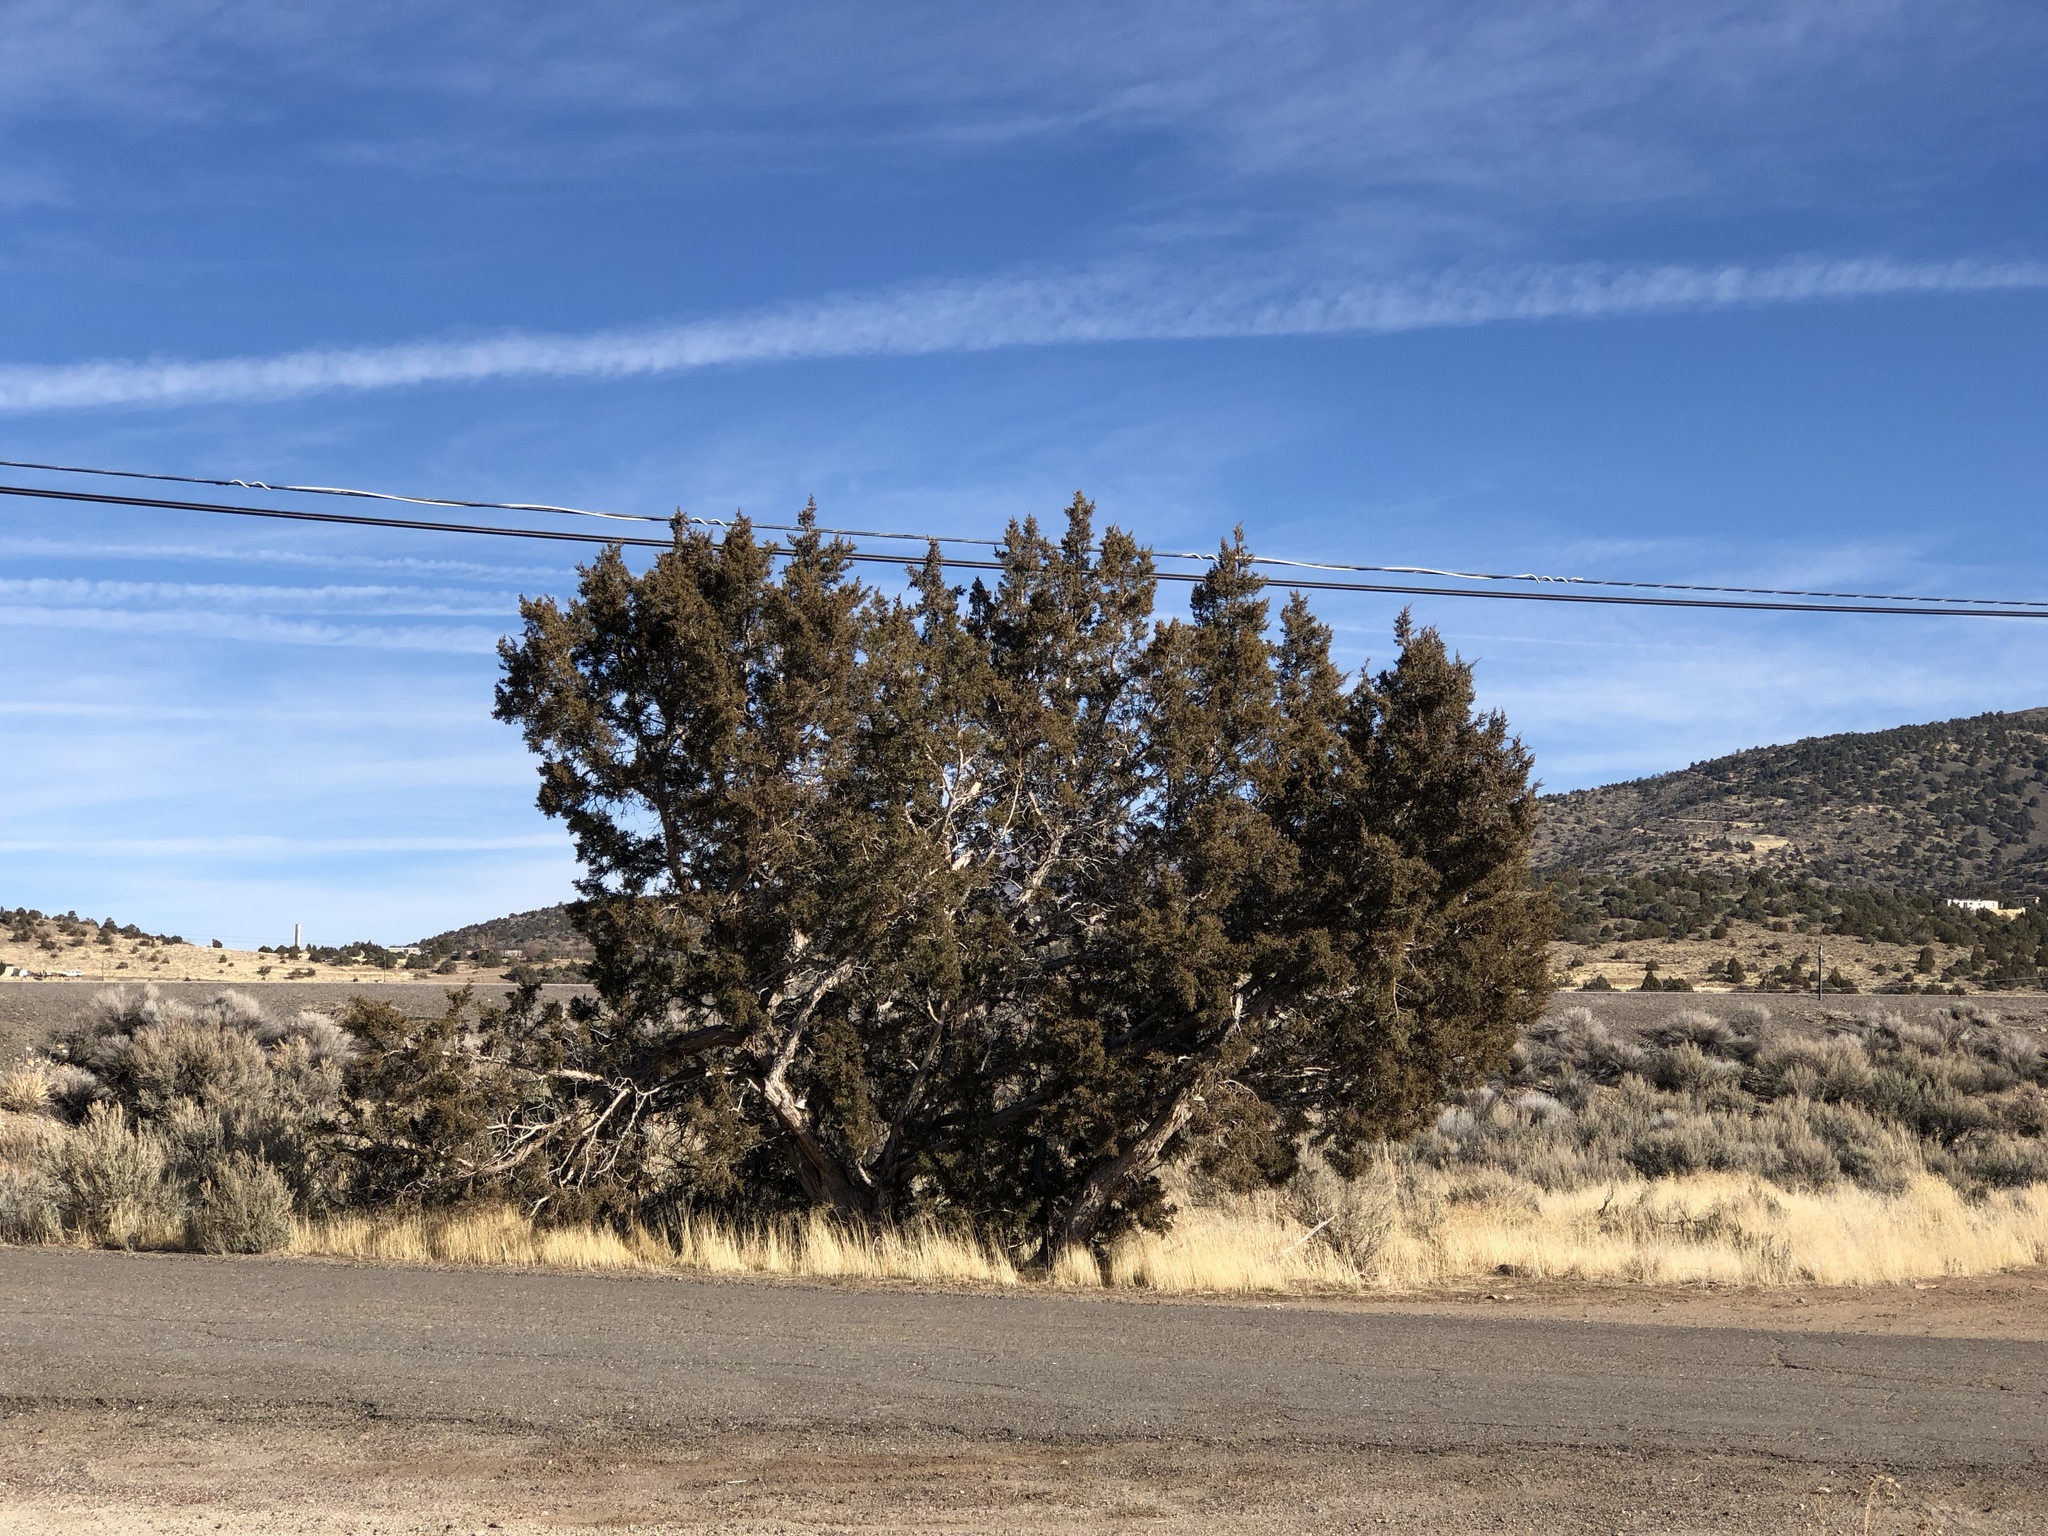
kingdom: Plantae
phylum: Tracheophyta
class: Pinopsida
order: Pinales
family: Cupressaceae
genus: Juniperus
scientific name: Juniperus osteosperma
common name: Utah juniper
